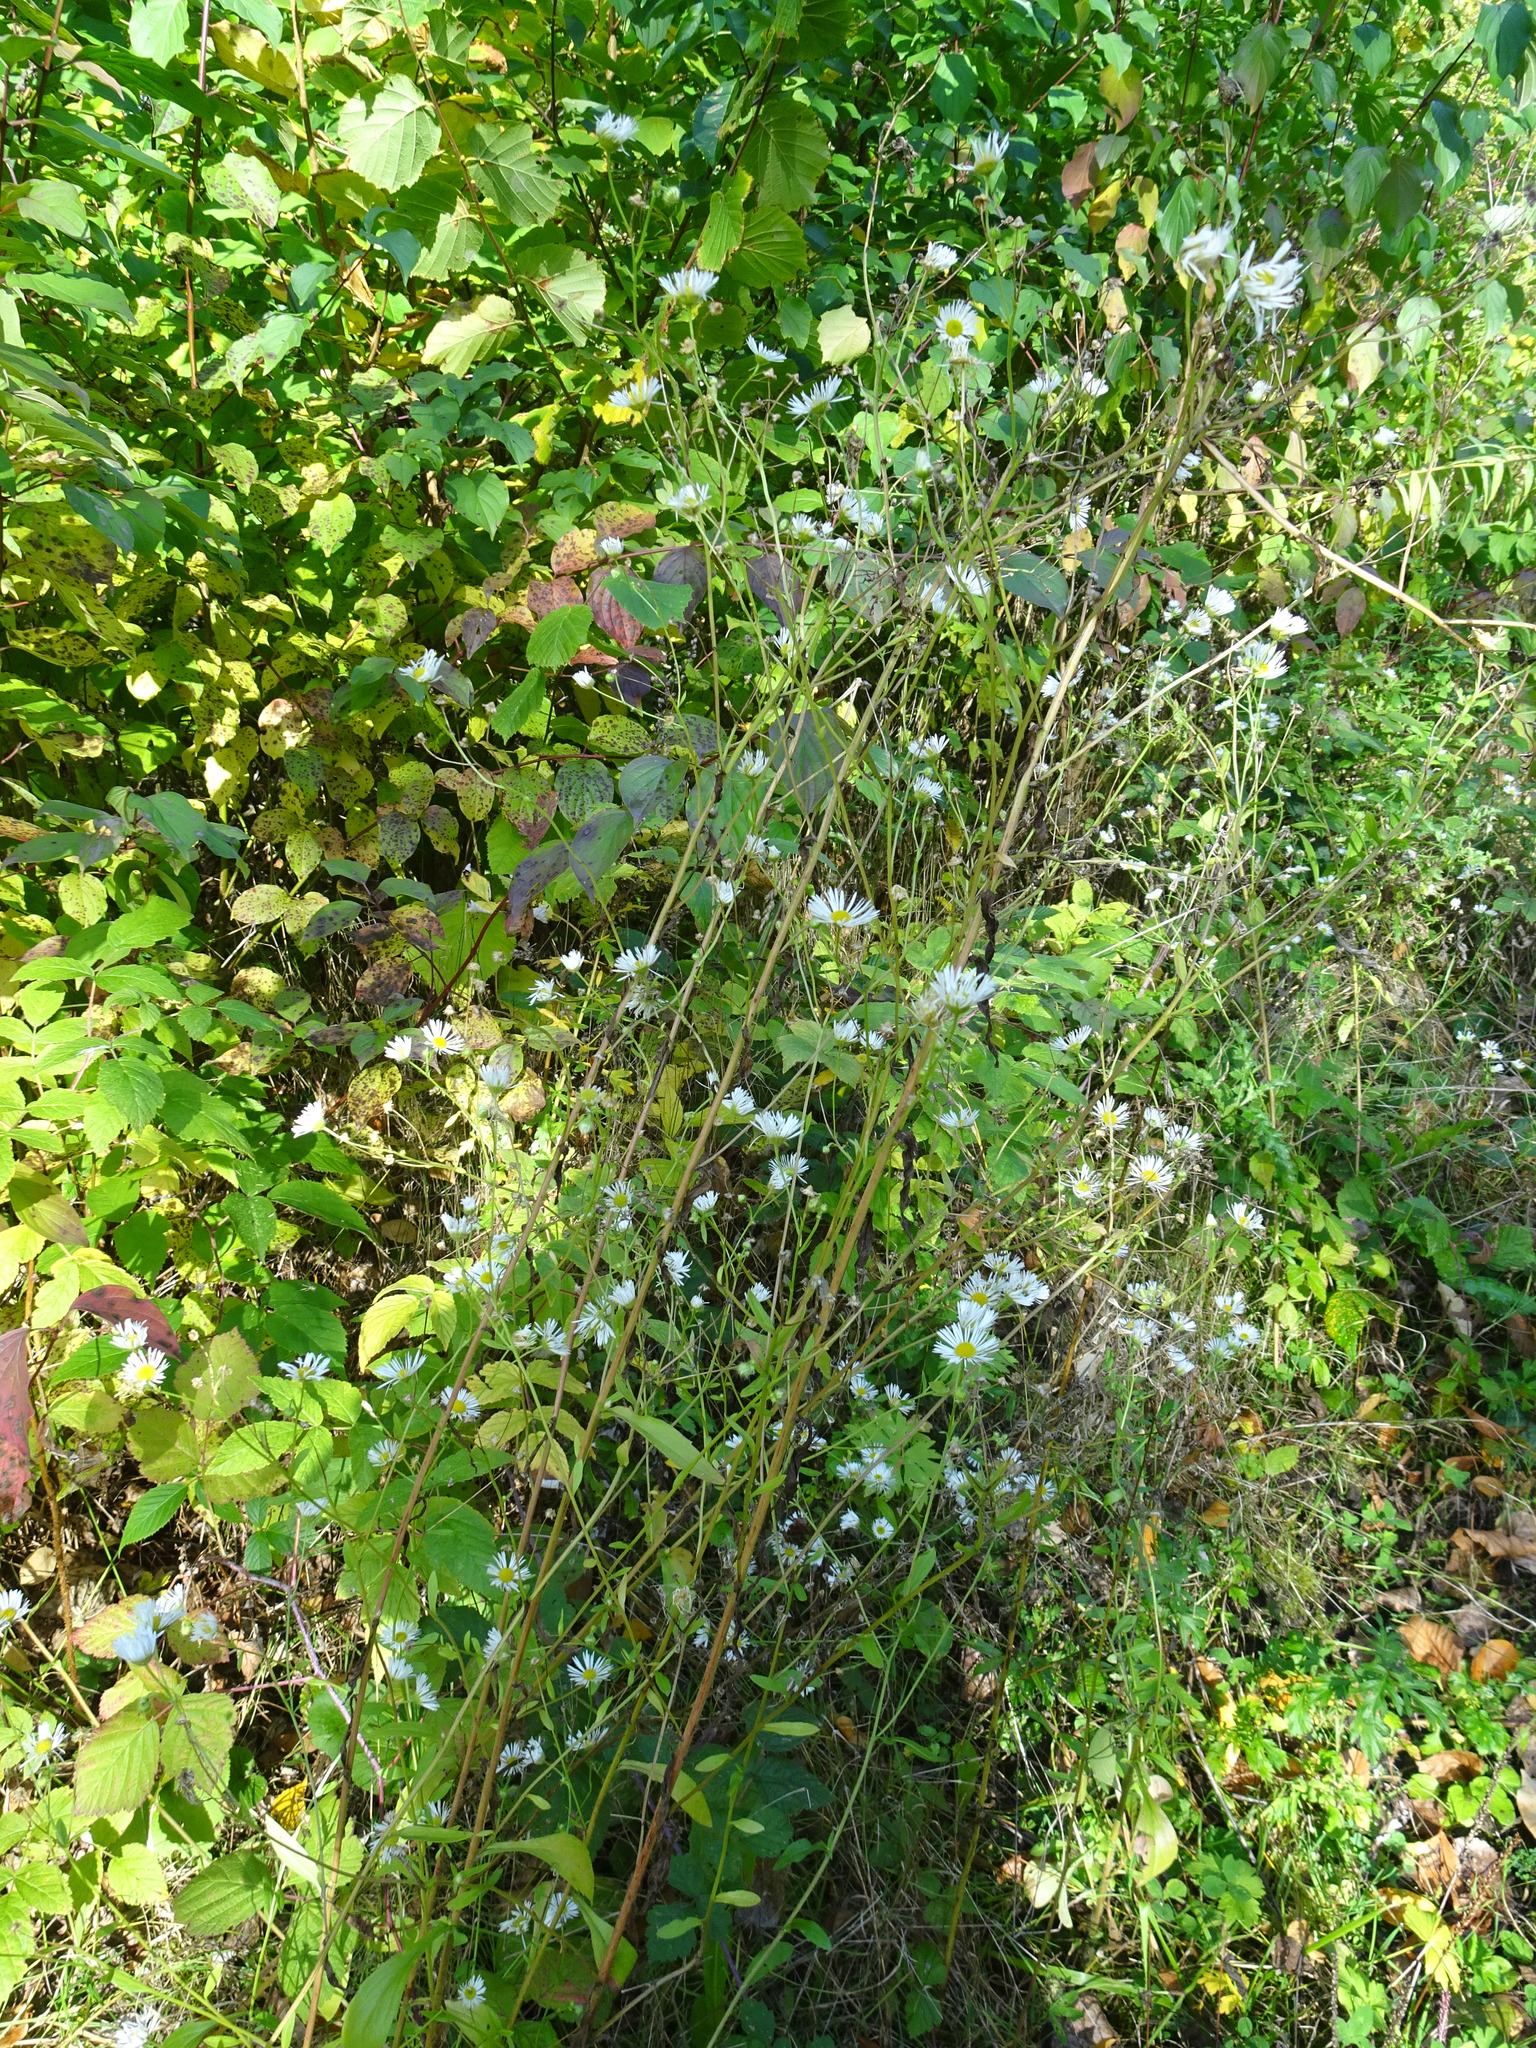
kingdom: Plantae
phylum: Tracheophyta
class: Magnoliopsida
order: Asterales
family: Asteraceae
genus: Erigeron
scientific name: Erigeron annuus
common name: Tall fleabane
